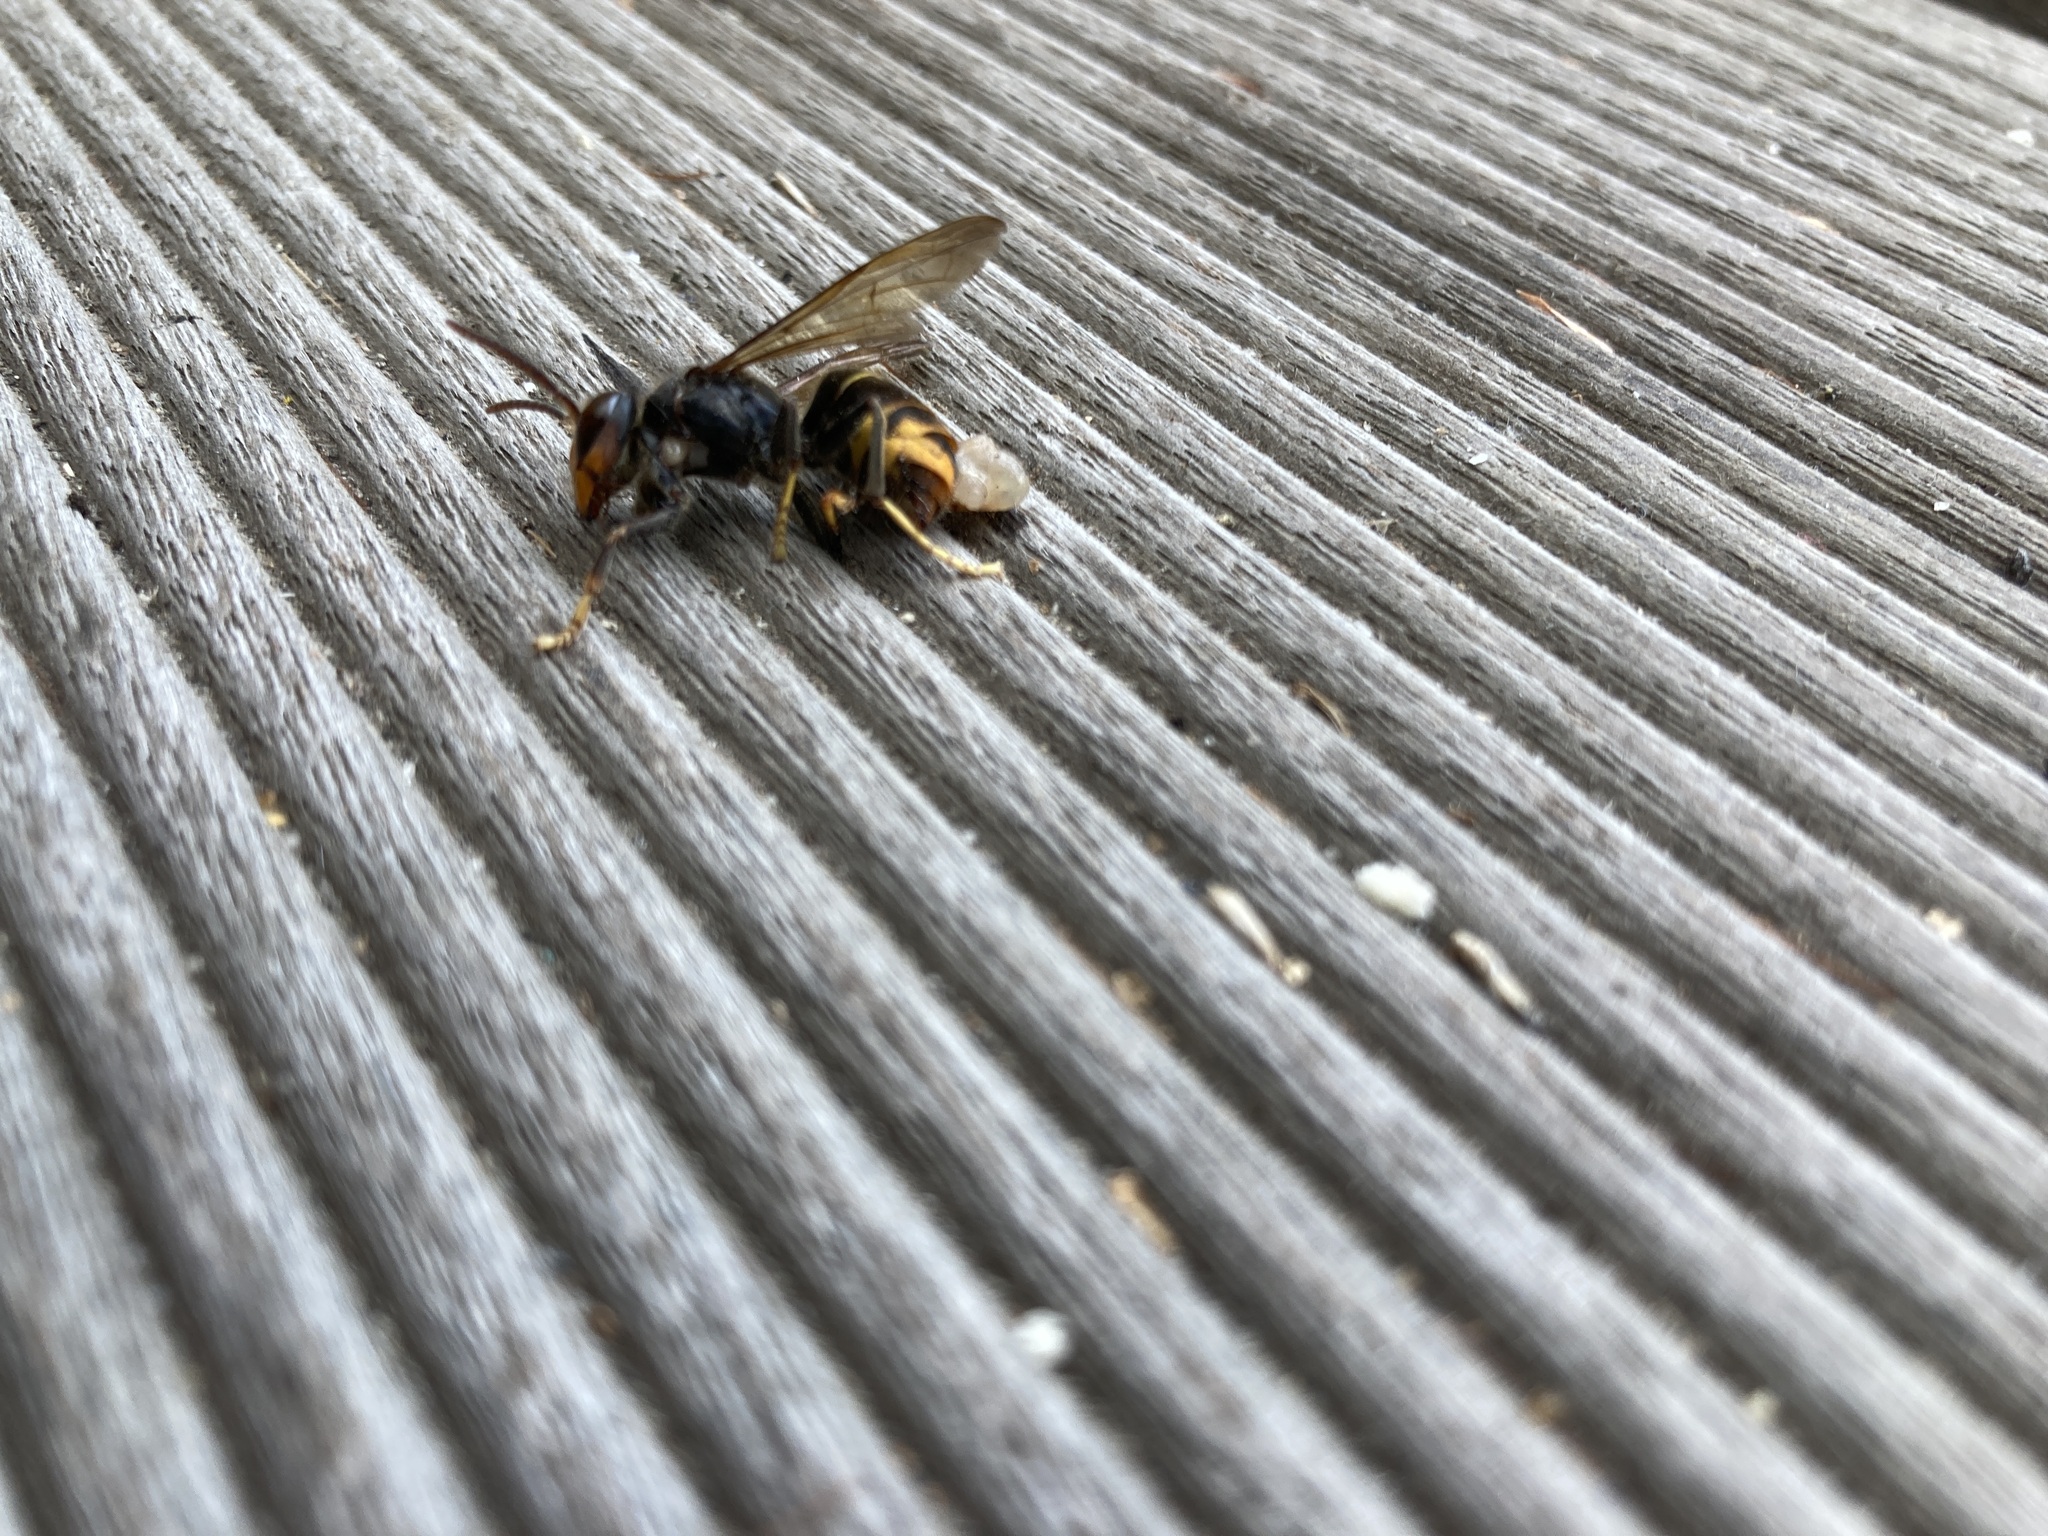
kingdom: Animalia
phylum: Arthropoda
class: Insecta
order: Hymenoptera
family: Vespidae
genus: Vespa
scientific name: Vespa velutina
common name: Asian hornet
